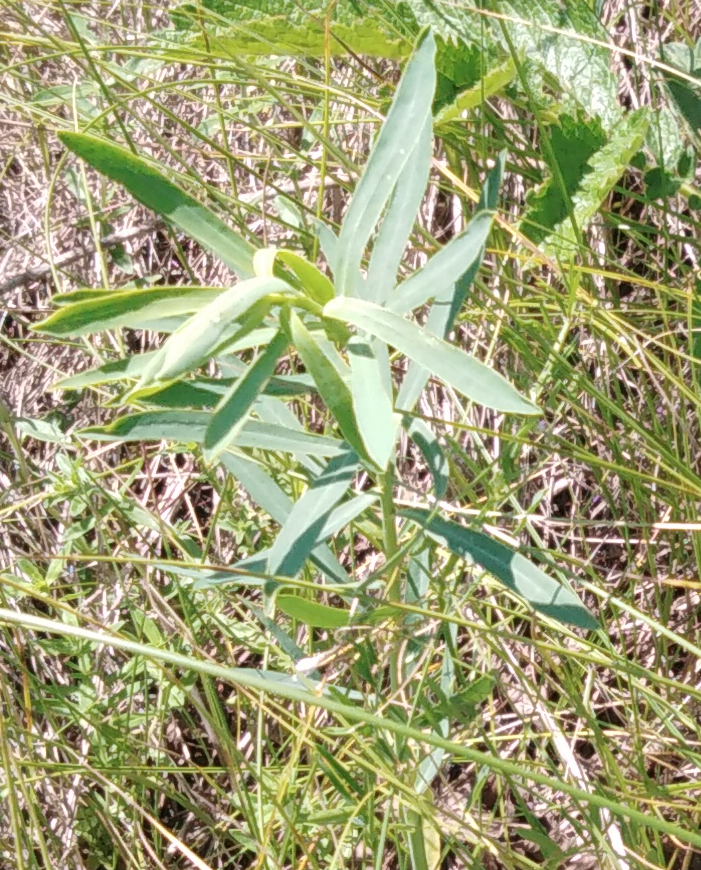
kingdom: Plantae
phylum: Tracheophyta
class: Magnoliopsida
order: Malpighiales
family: Euphorbiaceae
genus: Euphorbia
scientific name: Euphorbia virgata
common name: Leafy spurge
